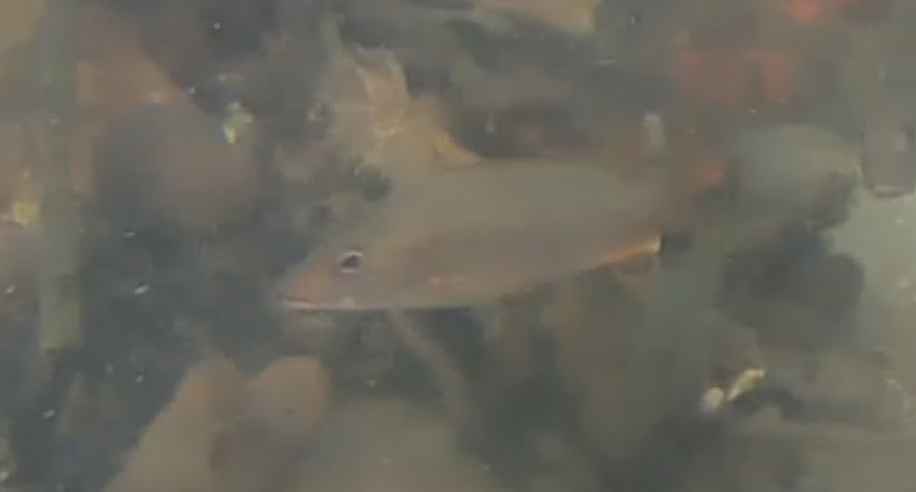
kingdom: Animalia
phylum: Chordata
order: Perciformes
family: Lutjanidae
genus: Lutjanus
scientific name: Lutjanus
